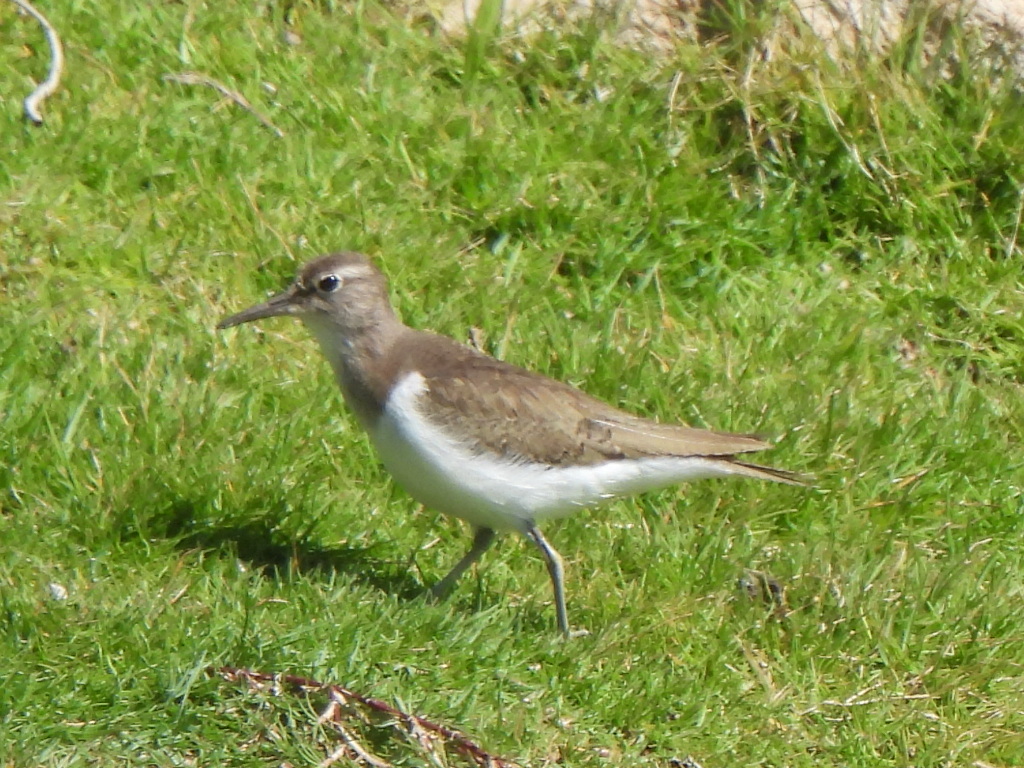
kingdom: Animalia
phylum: Chordata
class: Aves
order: Charadriiformes
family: Scolopacidae
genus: Actitis
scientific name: Actitis hypoleucos
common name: Common sandpiper
